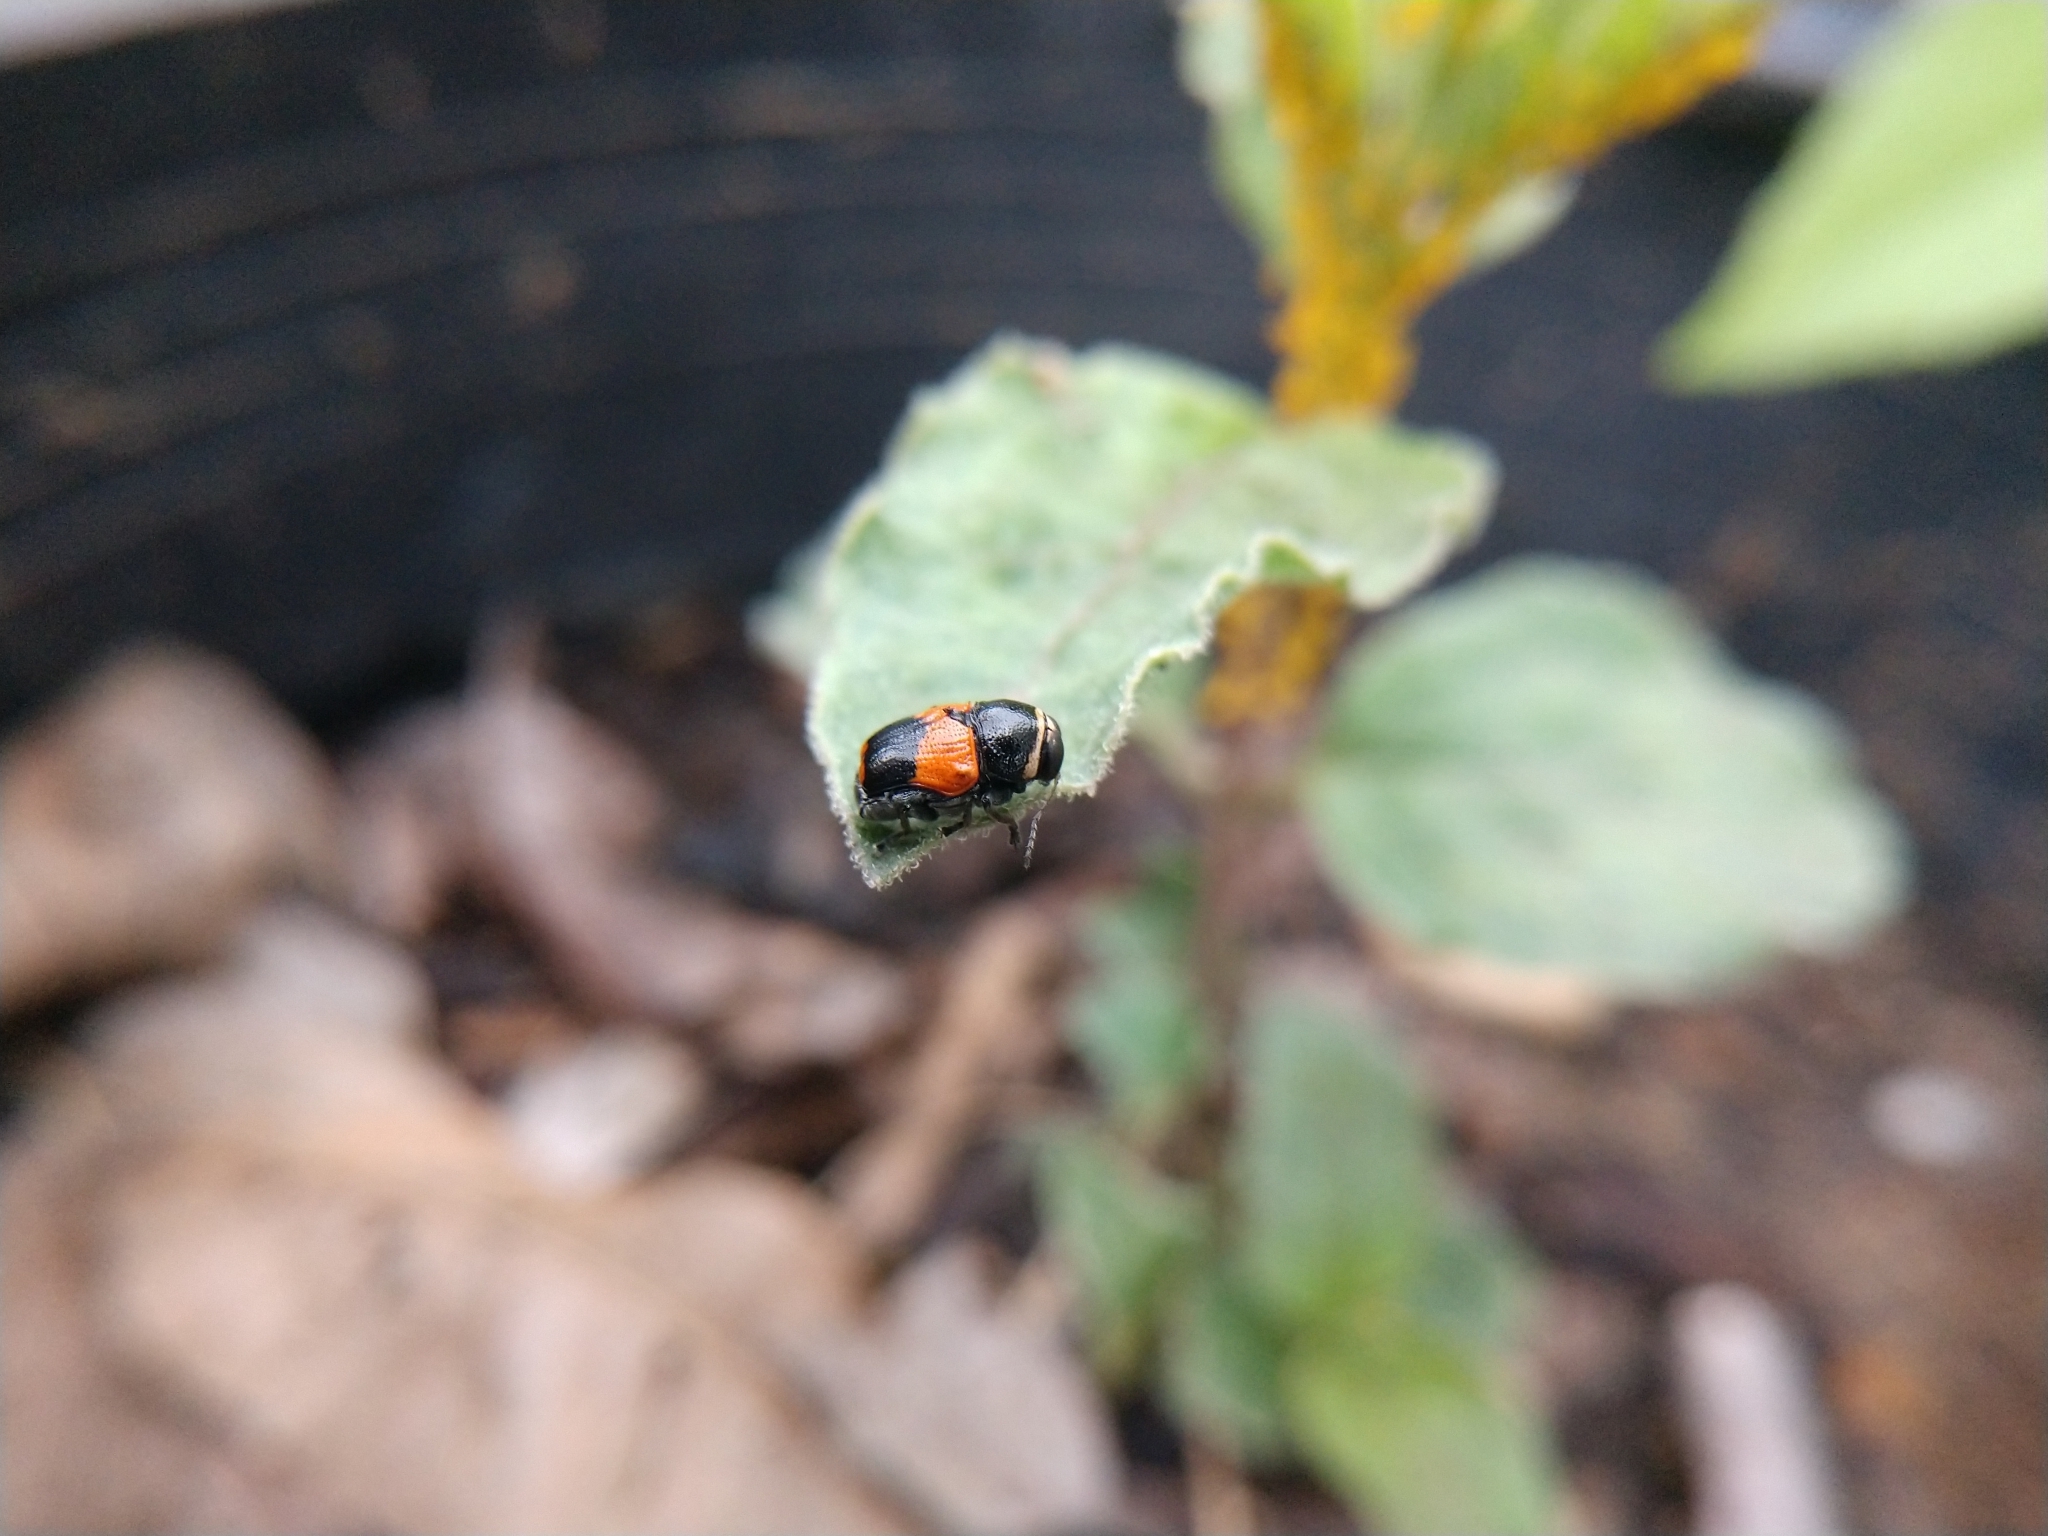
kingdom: Animalia
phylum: Arthropoda
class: Insecta
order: Coleoptera
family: Chrysomelidae
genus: Scelolyperus
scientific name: Scelolyperus lecontii
